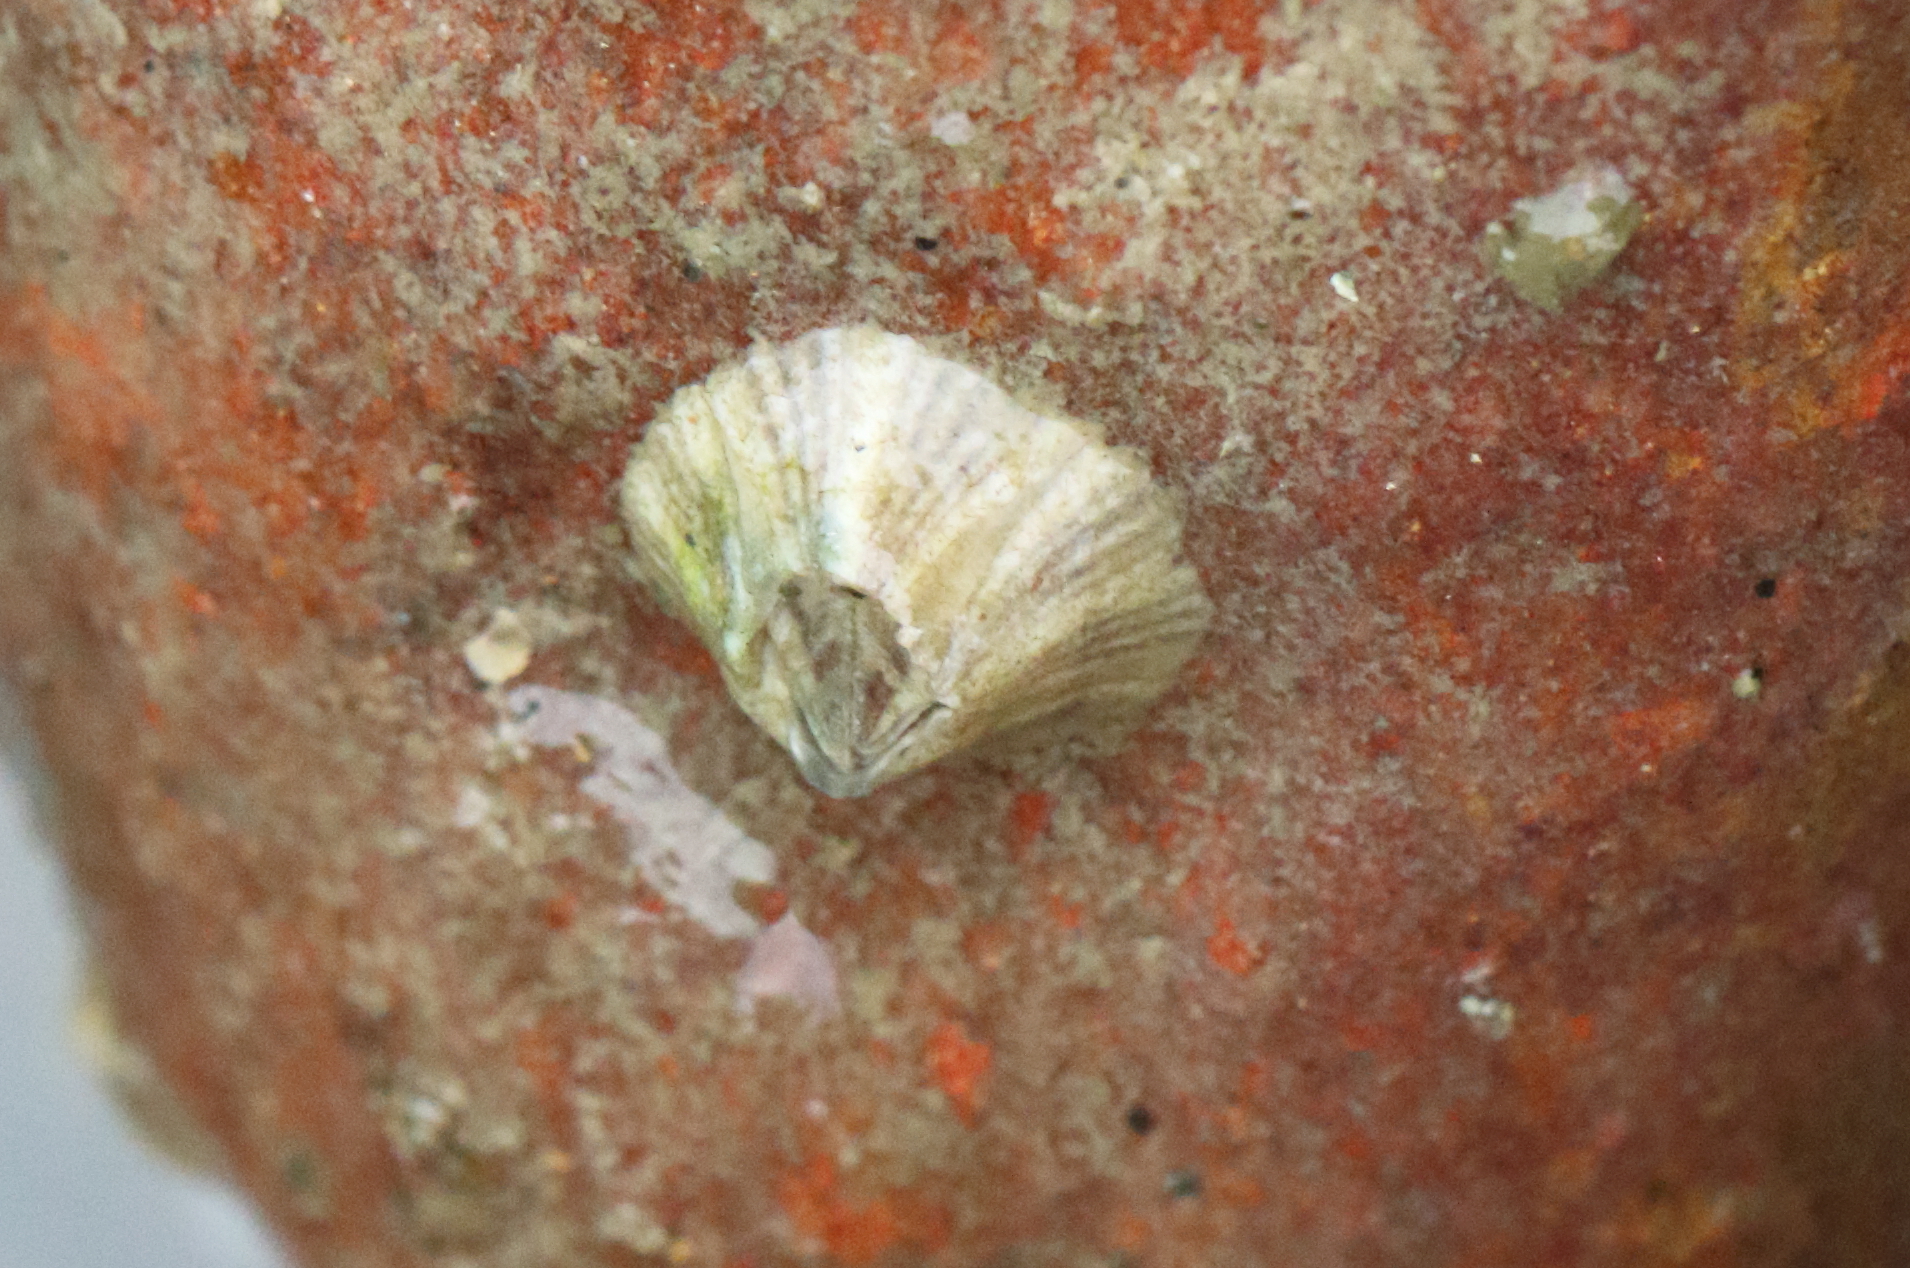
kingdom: Animalia
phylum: Arthropoda
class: Maxillopoda
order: Sessilia
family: Balanidae
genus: Amphibalanus
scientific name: Amphibalanus amphitrite
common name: Striped acorn barnacle
